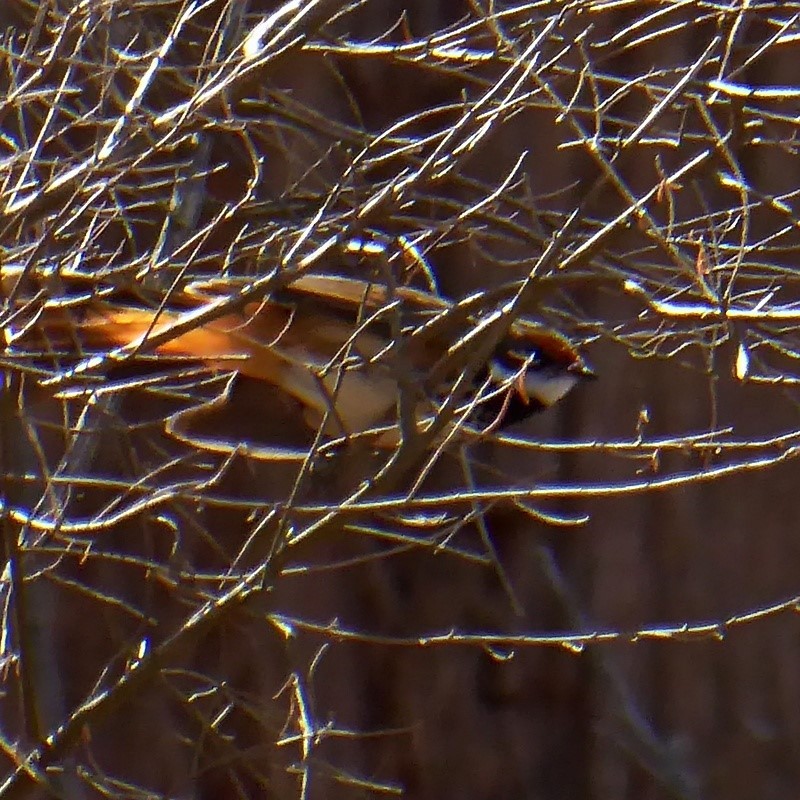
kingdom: Animalia
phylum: Chordata
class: Aves
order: Passeriformes
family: Rhipiduridae
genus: Rhipidura
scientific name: Rhipidura rufifrons
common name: Rufous fantail
